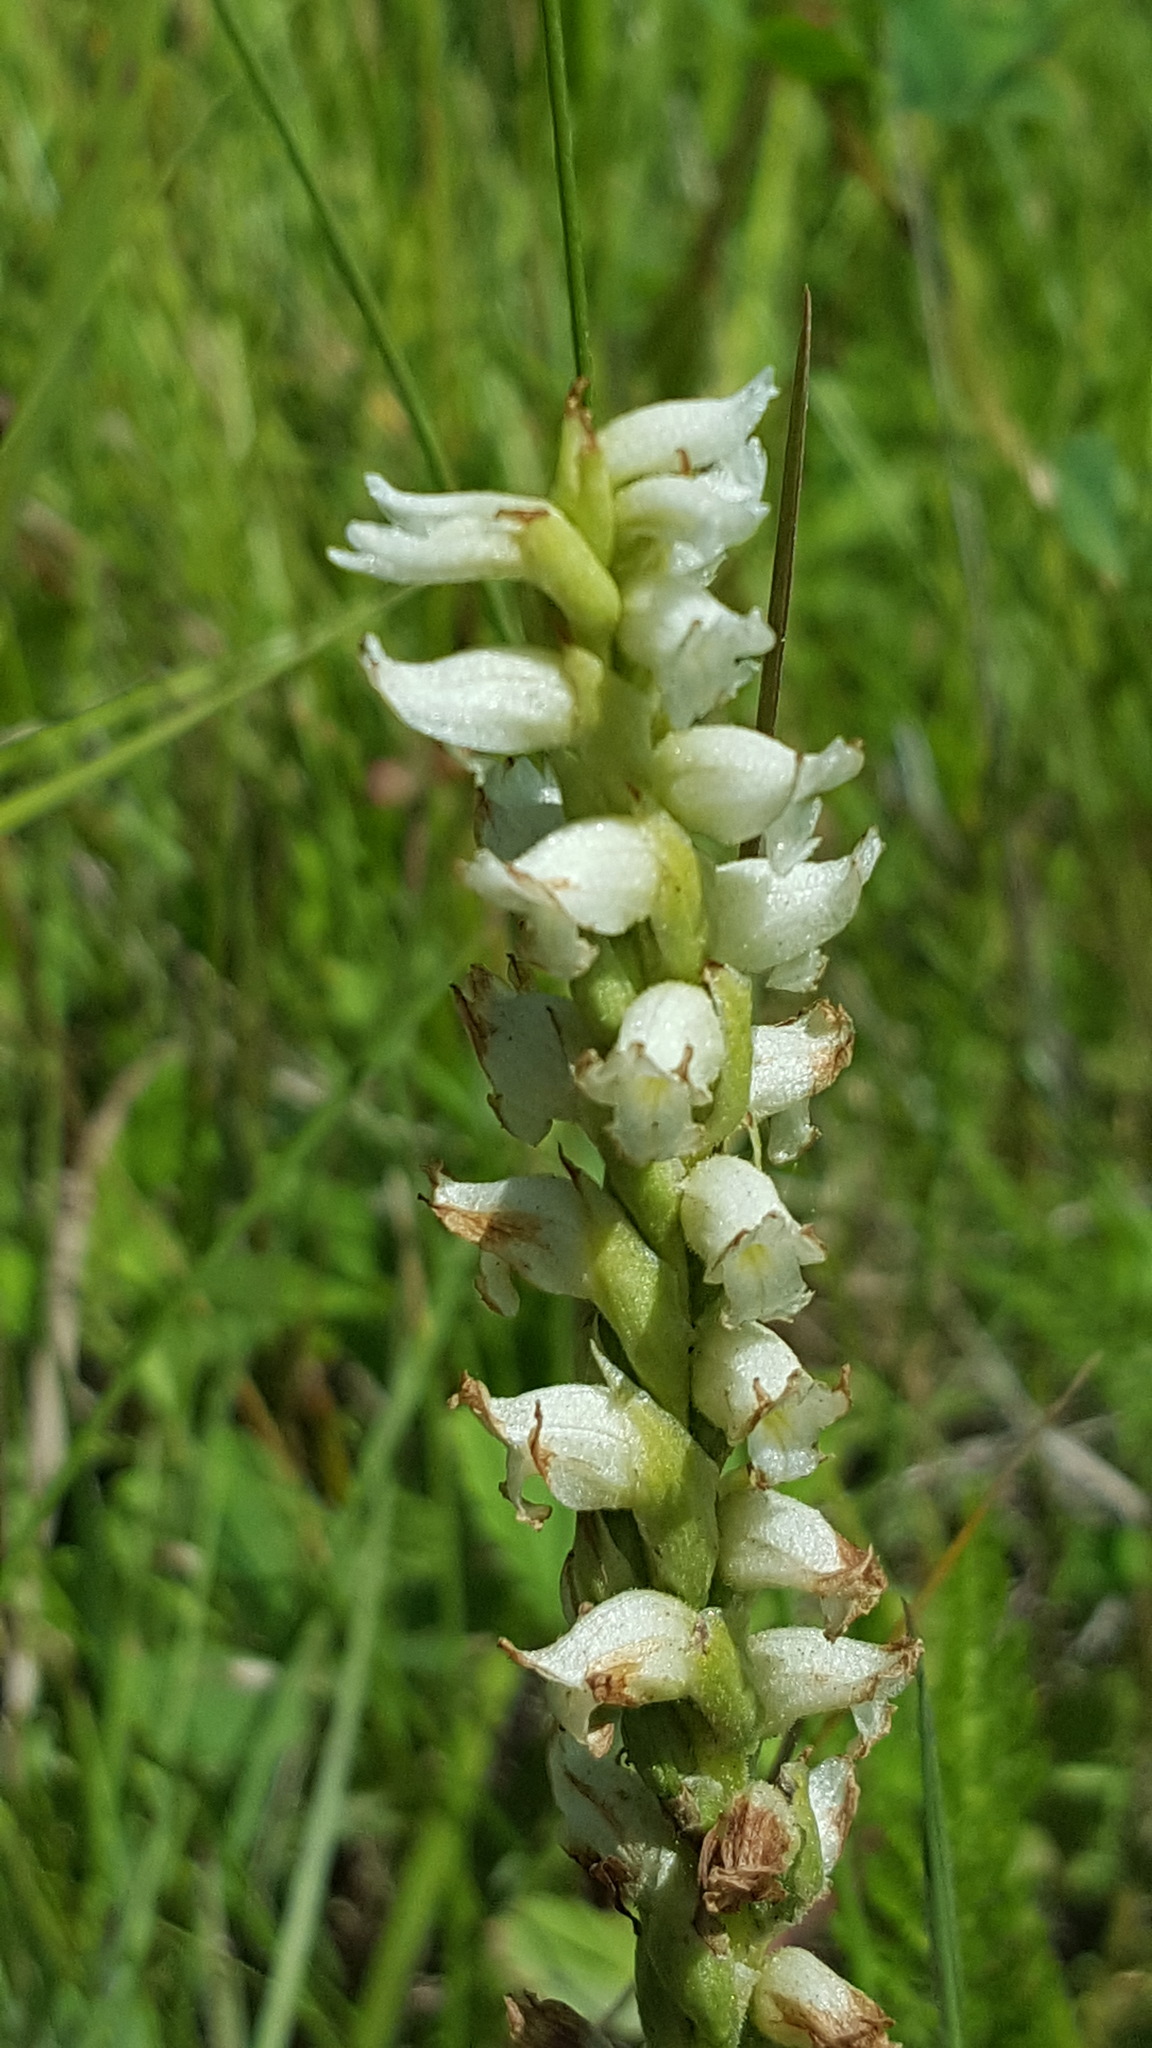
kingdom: Plantae
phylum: Tracheophyta
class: Liliopsida
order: Asparagales
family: Orchidaceae
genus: Spiranthes
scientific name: Spiranthes romanzoffiana
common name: Irish lady's-tresses
